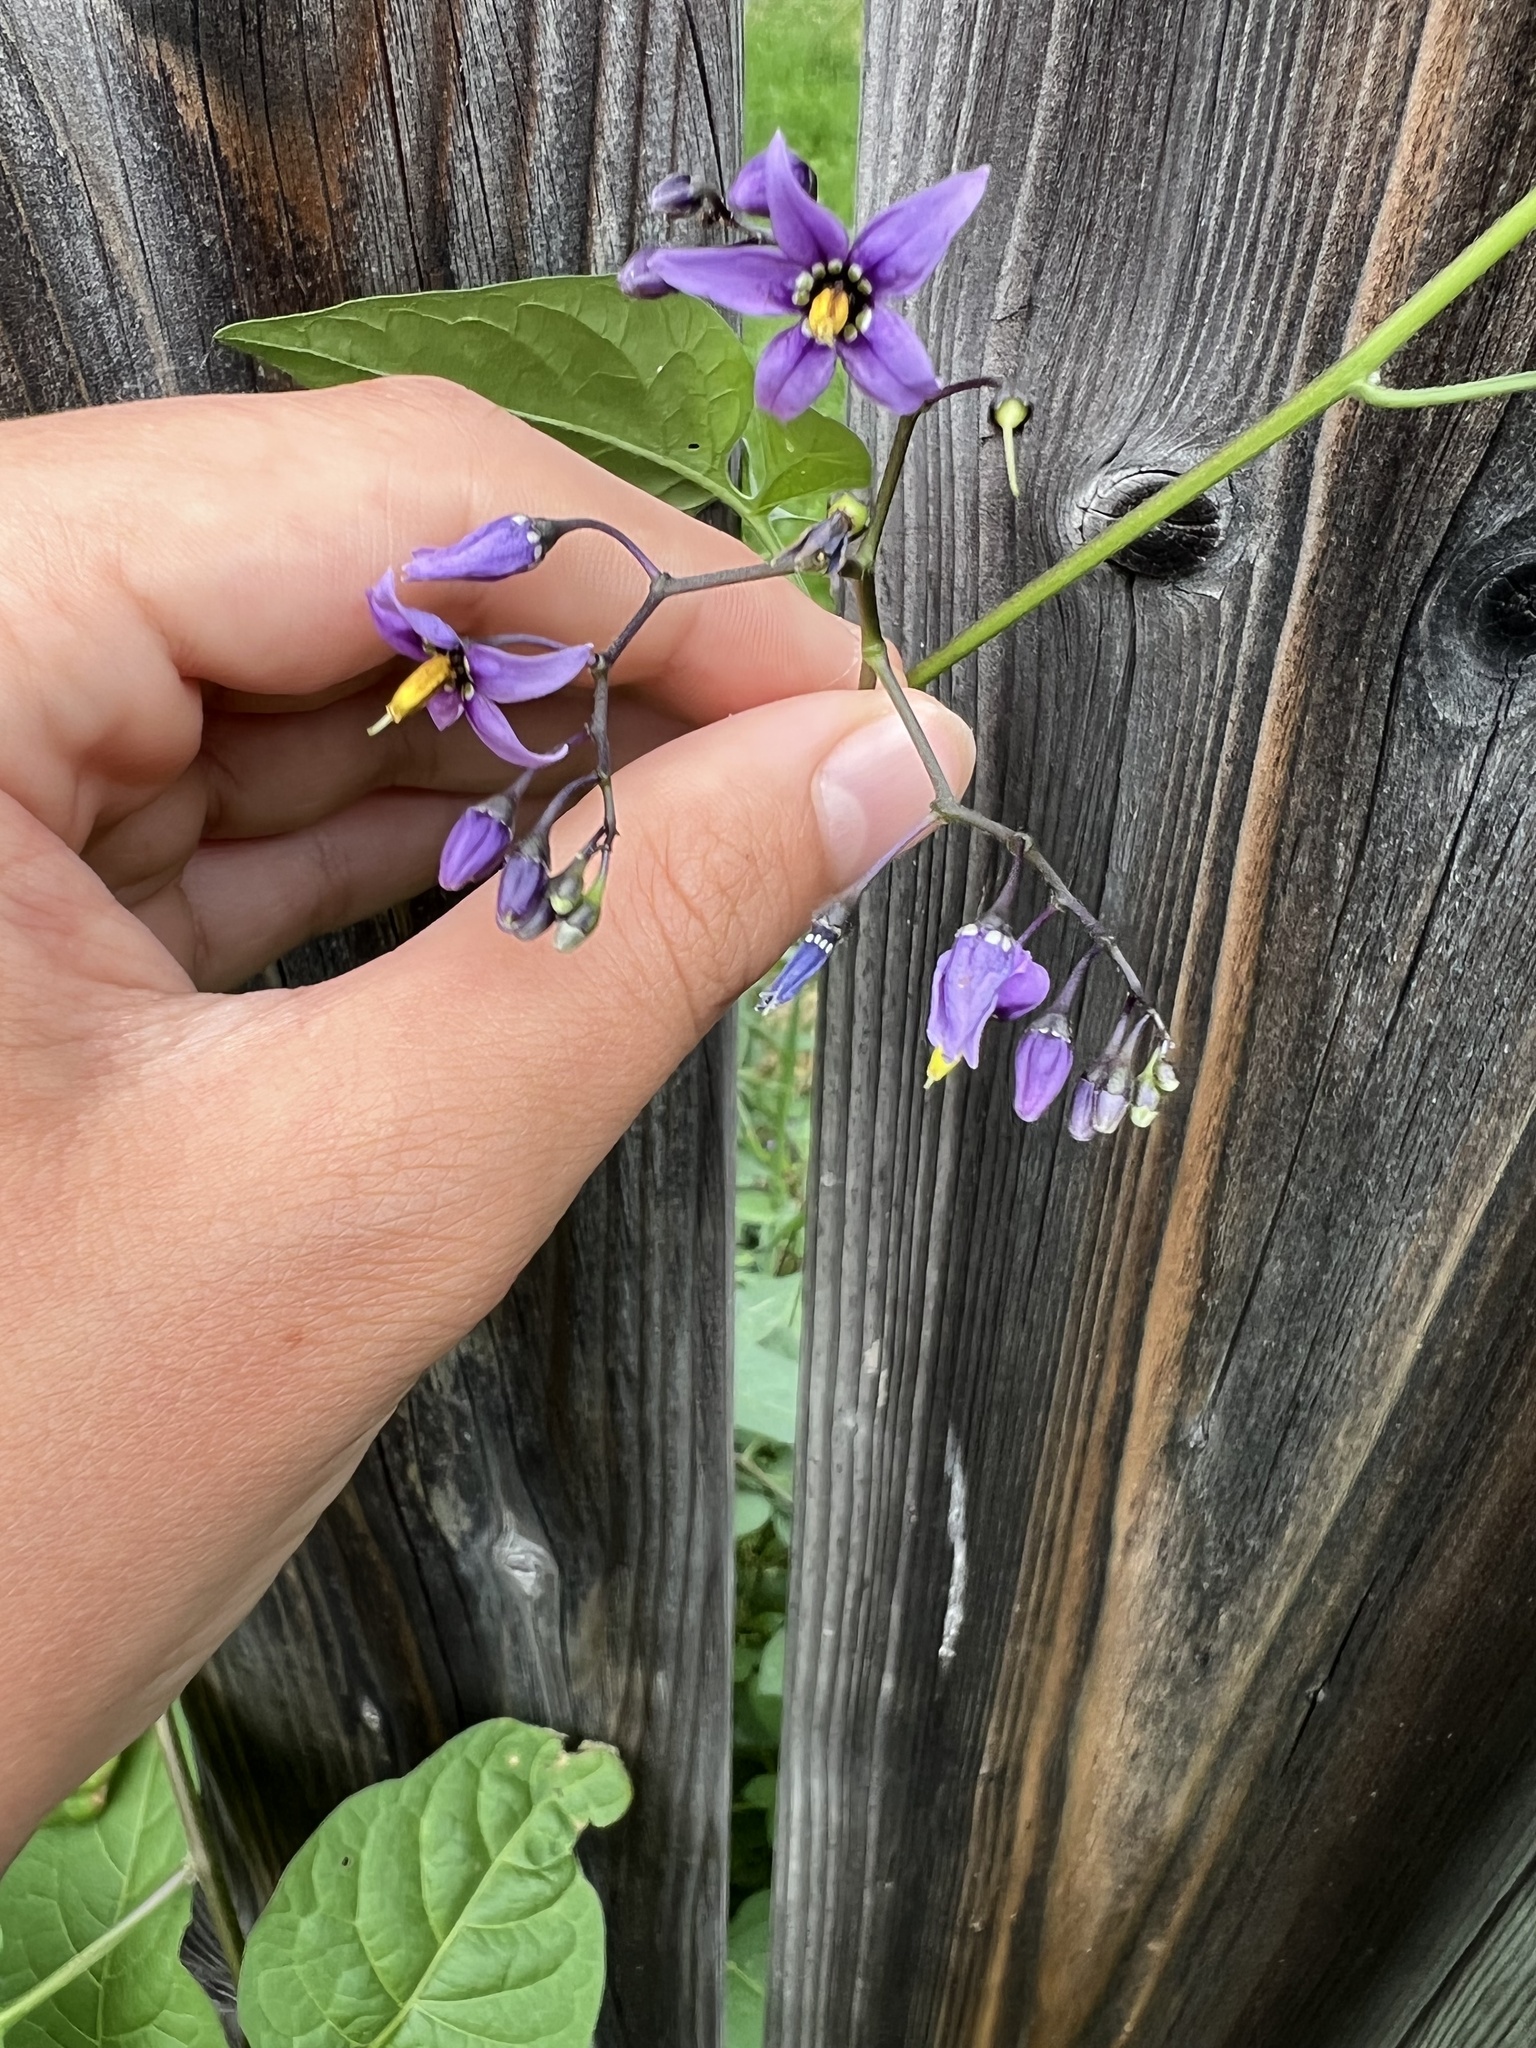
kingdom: Plantae
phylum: Tracheophyta
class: Magnoliopsida
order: Solanales
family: Solanaceae
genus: Solanum
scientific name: Solanum dulcamara
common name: Climbing nightshade
